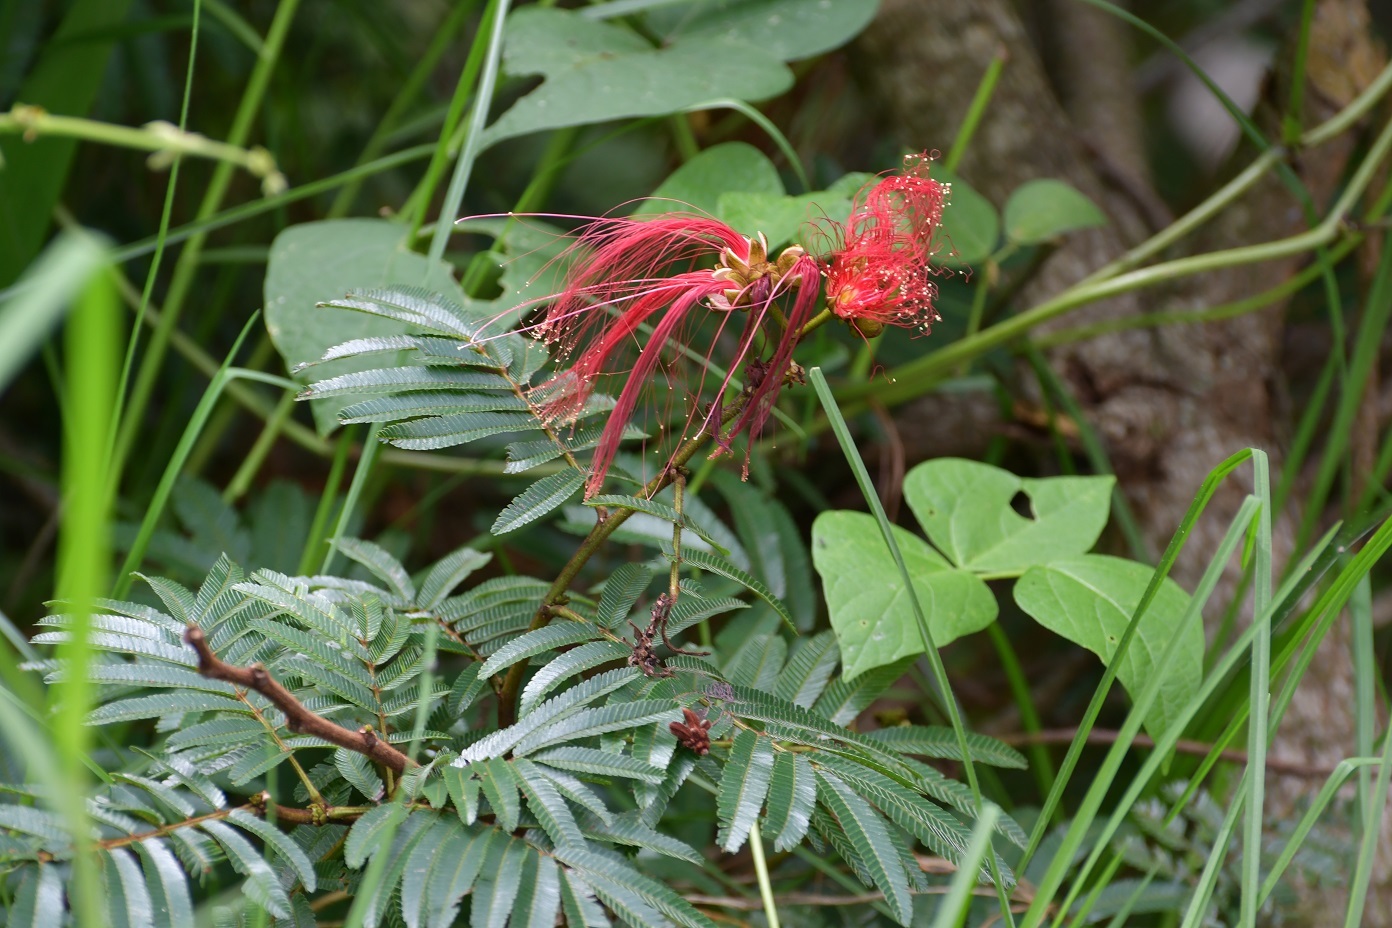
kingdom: Plantae
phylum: Tracheophyta
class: Magnoliopsida
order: Fabales
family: Fabaceae
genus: Calliandra
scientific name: Calliandra houstoniana
